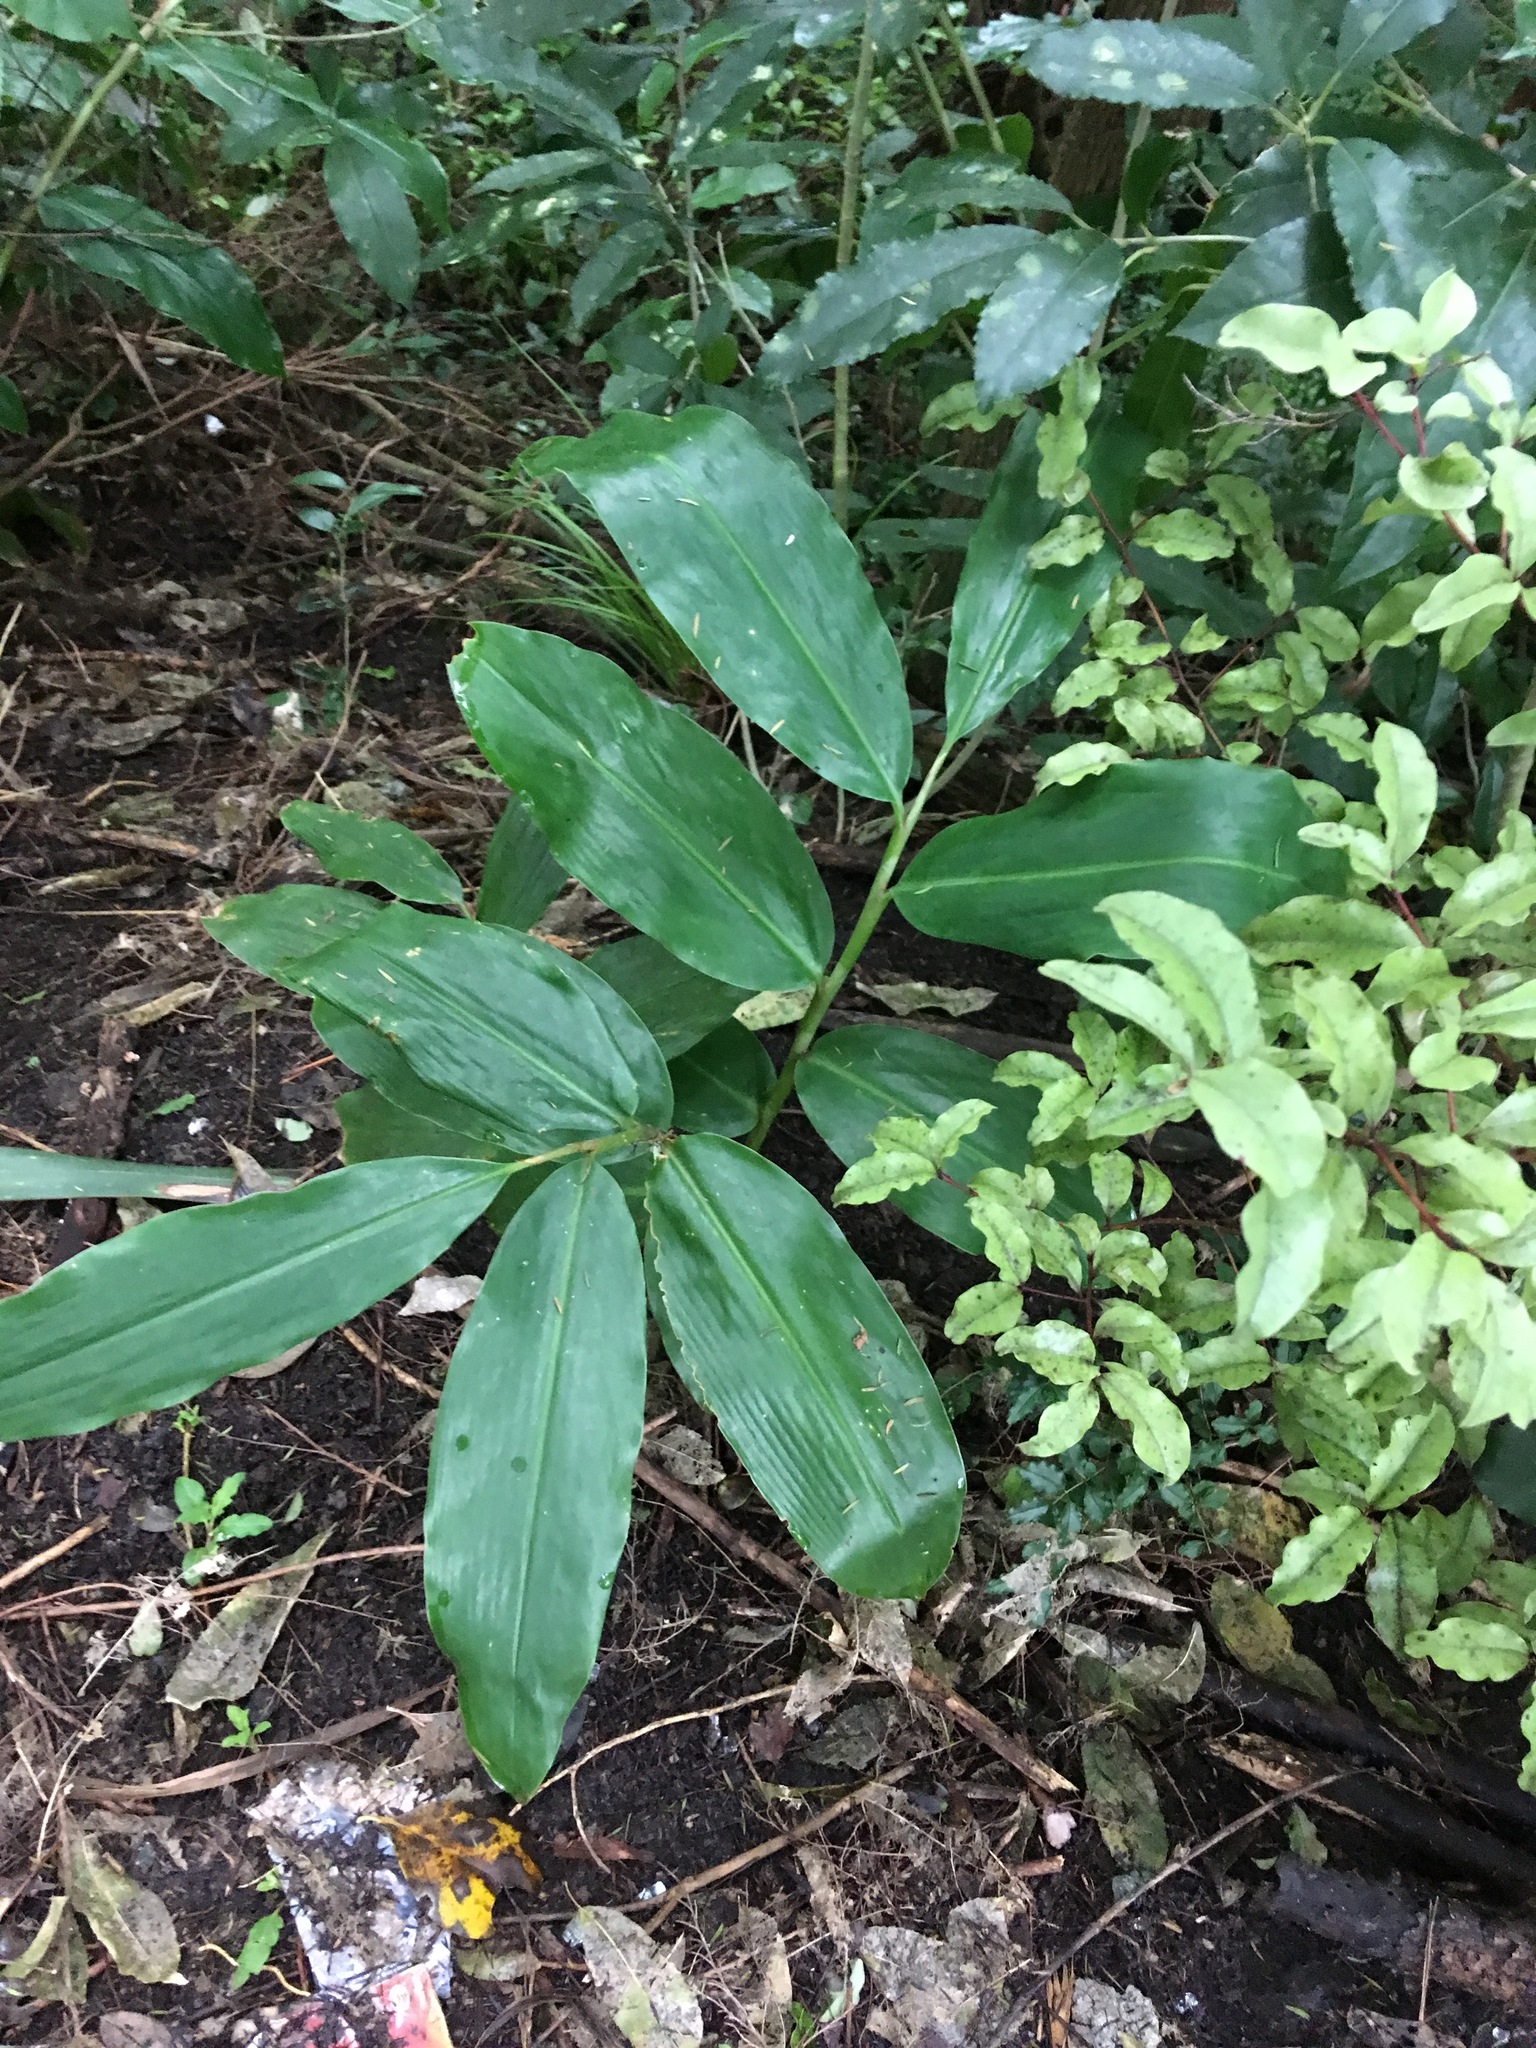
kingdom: Plantae
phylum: Tracheophyta
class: Liliopsida
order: Zingiberales
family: Zingiberaceae
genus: Hedychium
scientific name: Hedychium gardnerianum
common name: Himalayan ginger
